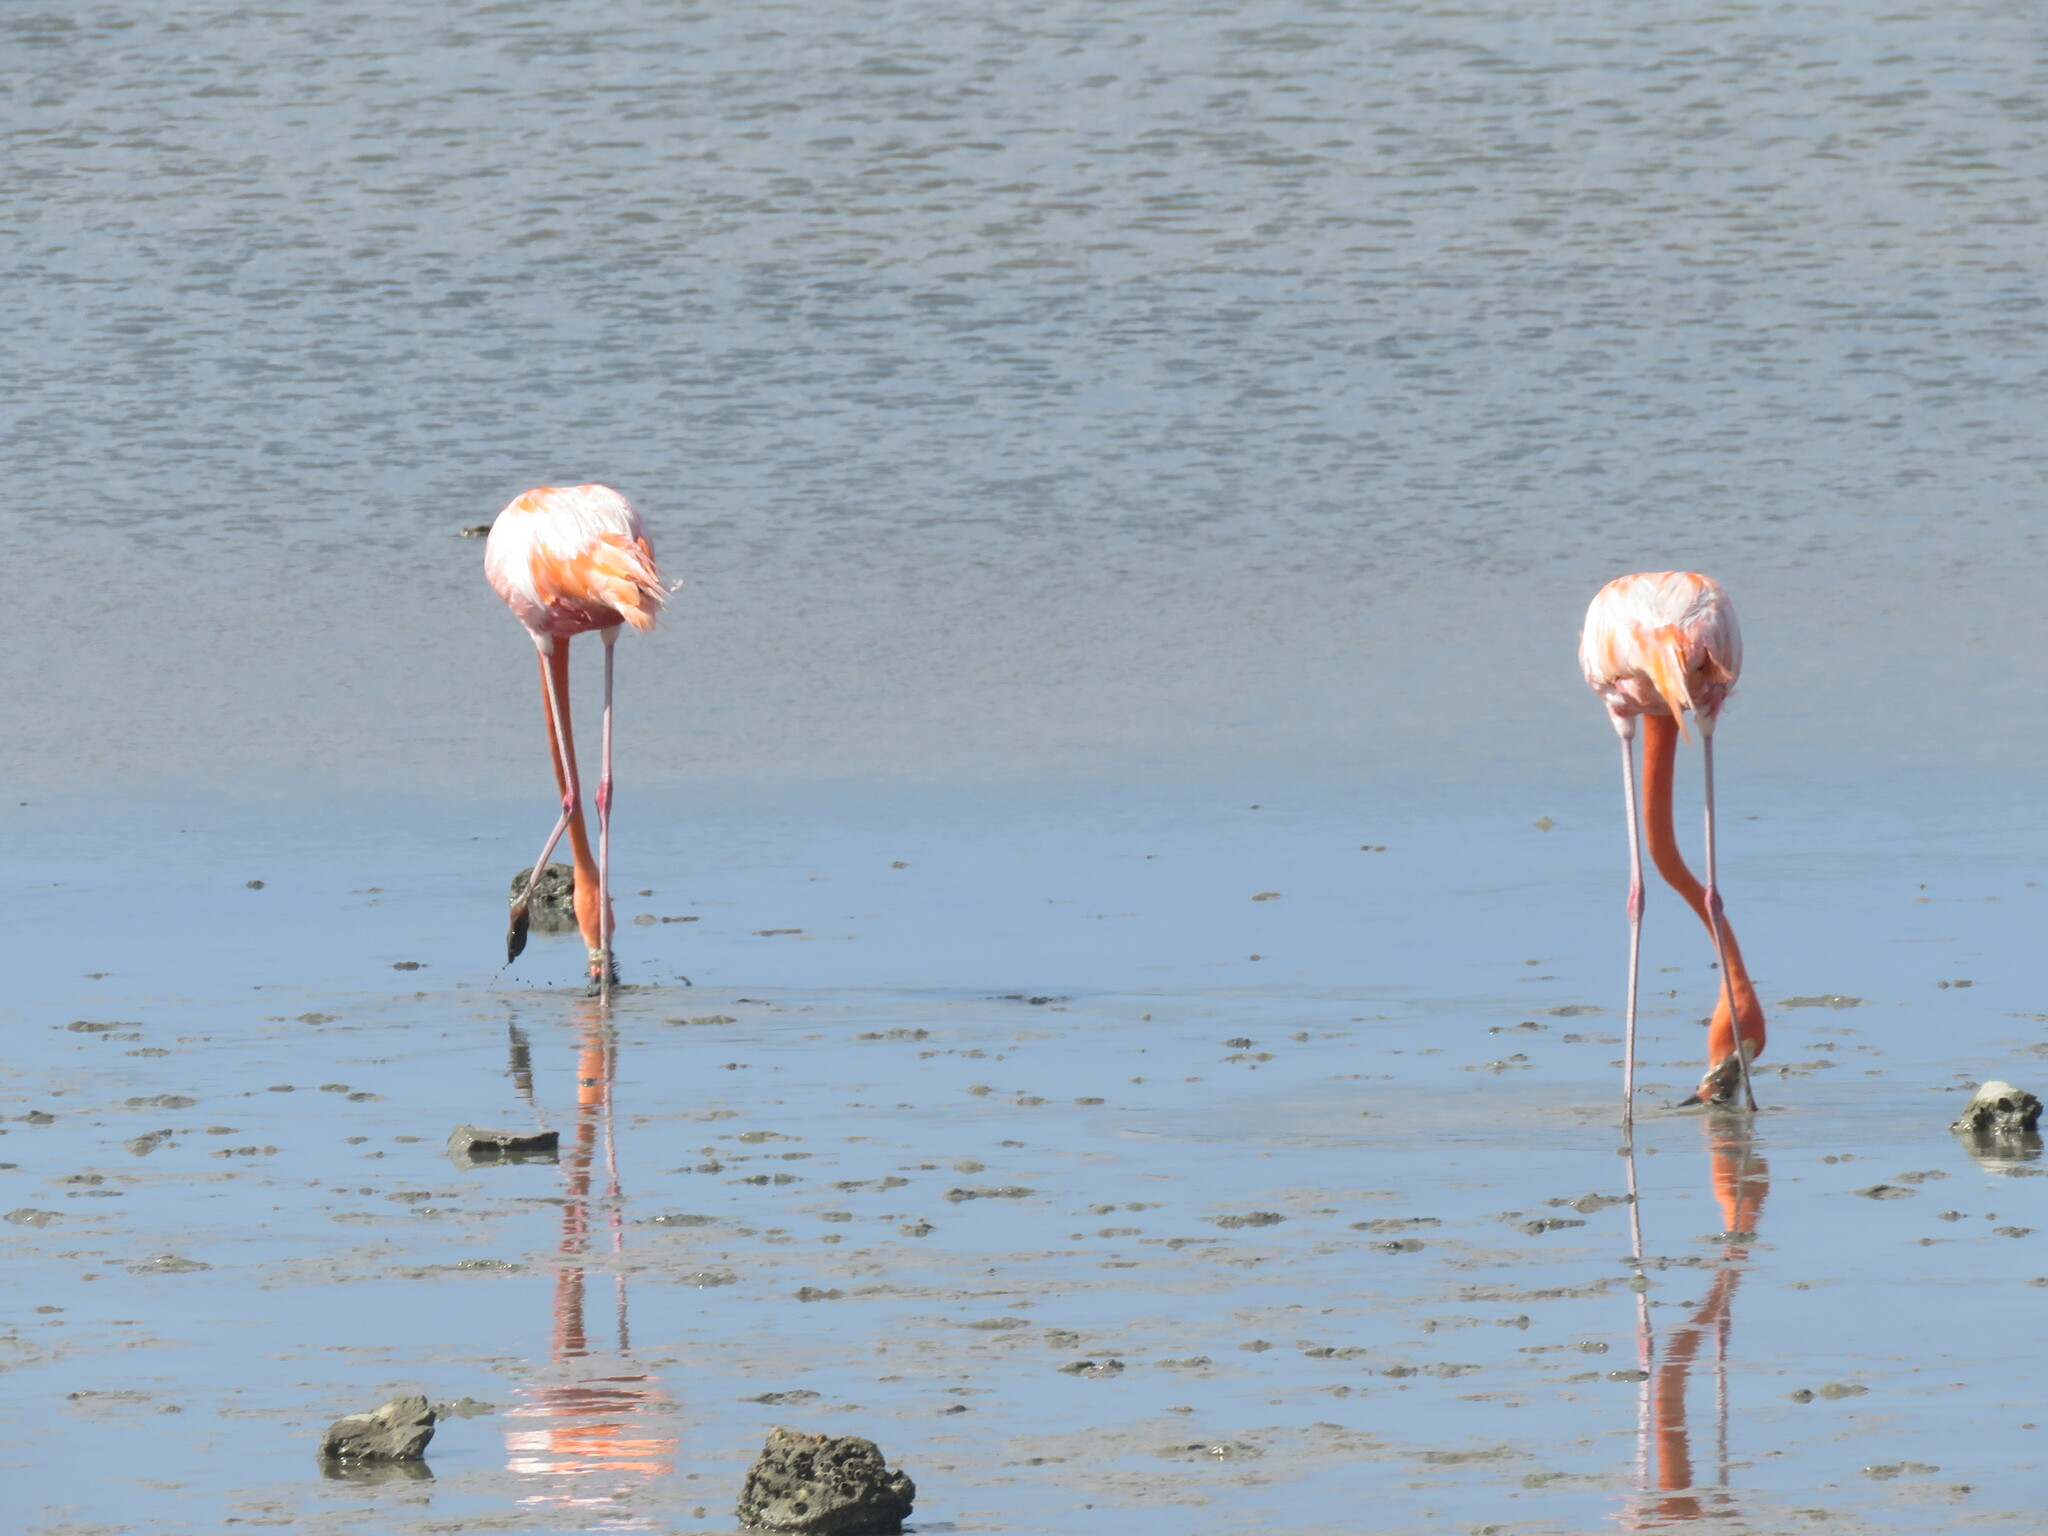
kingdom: Animalia
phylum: Chordata
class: Aves
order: Phoenicopteriformes
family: Phoenicopteridae
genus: Phoenicopterus
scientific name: Phoenicopterus ruber
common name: American flamingo
